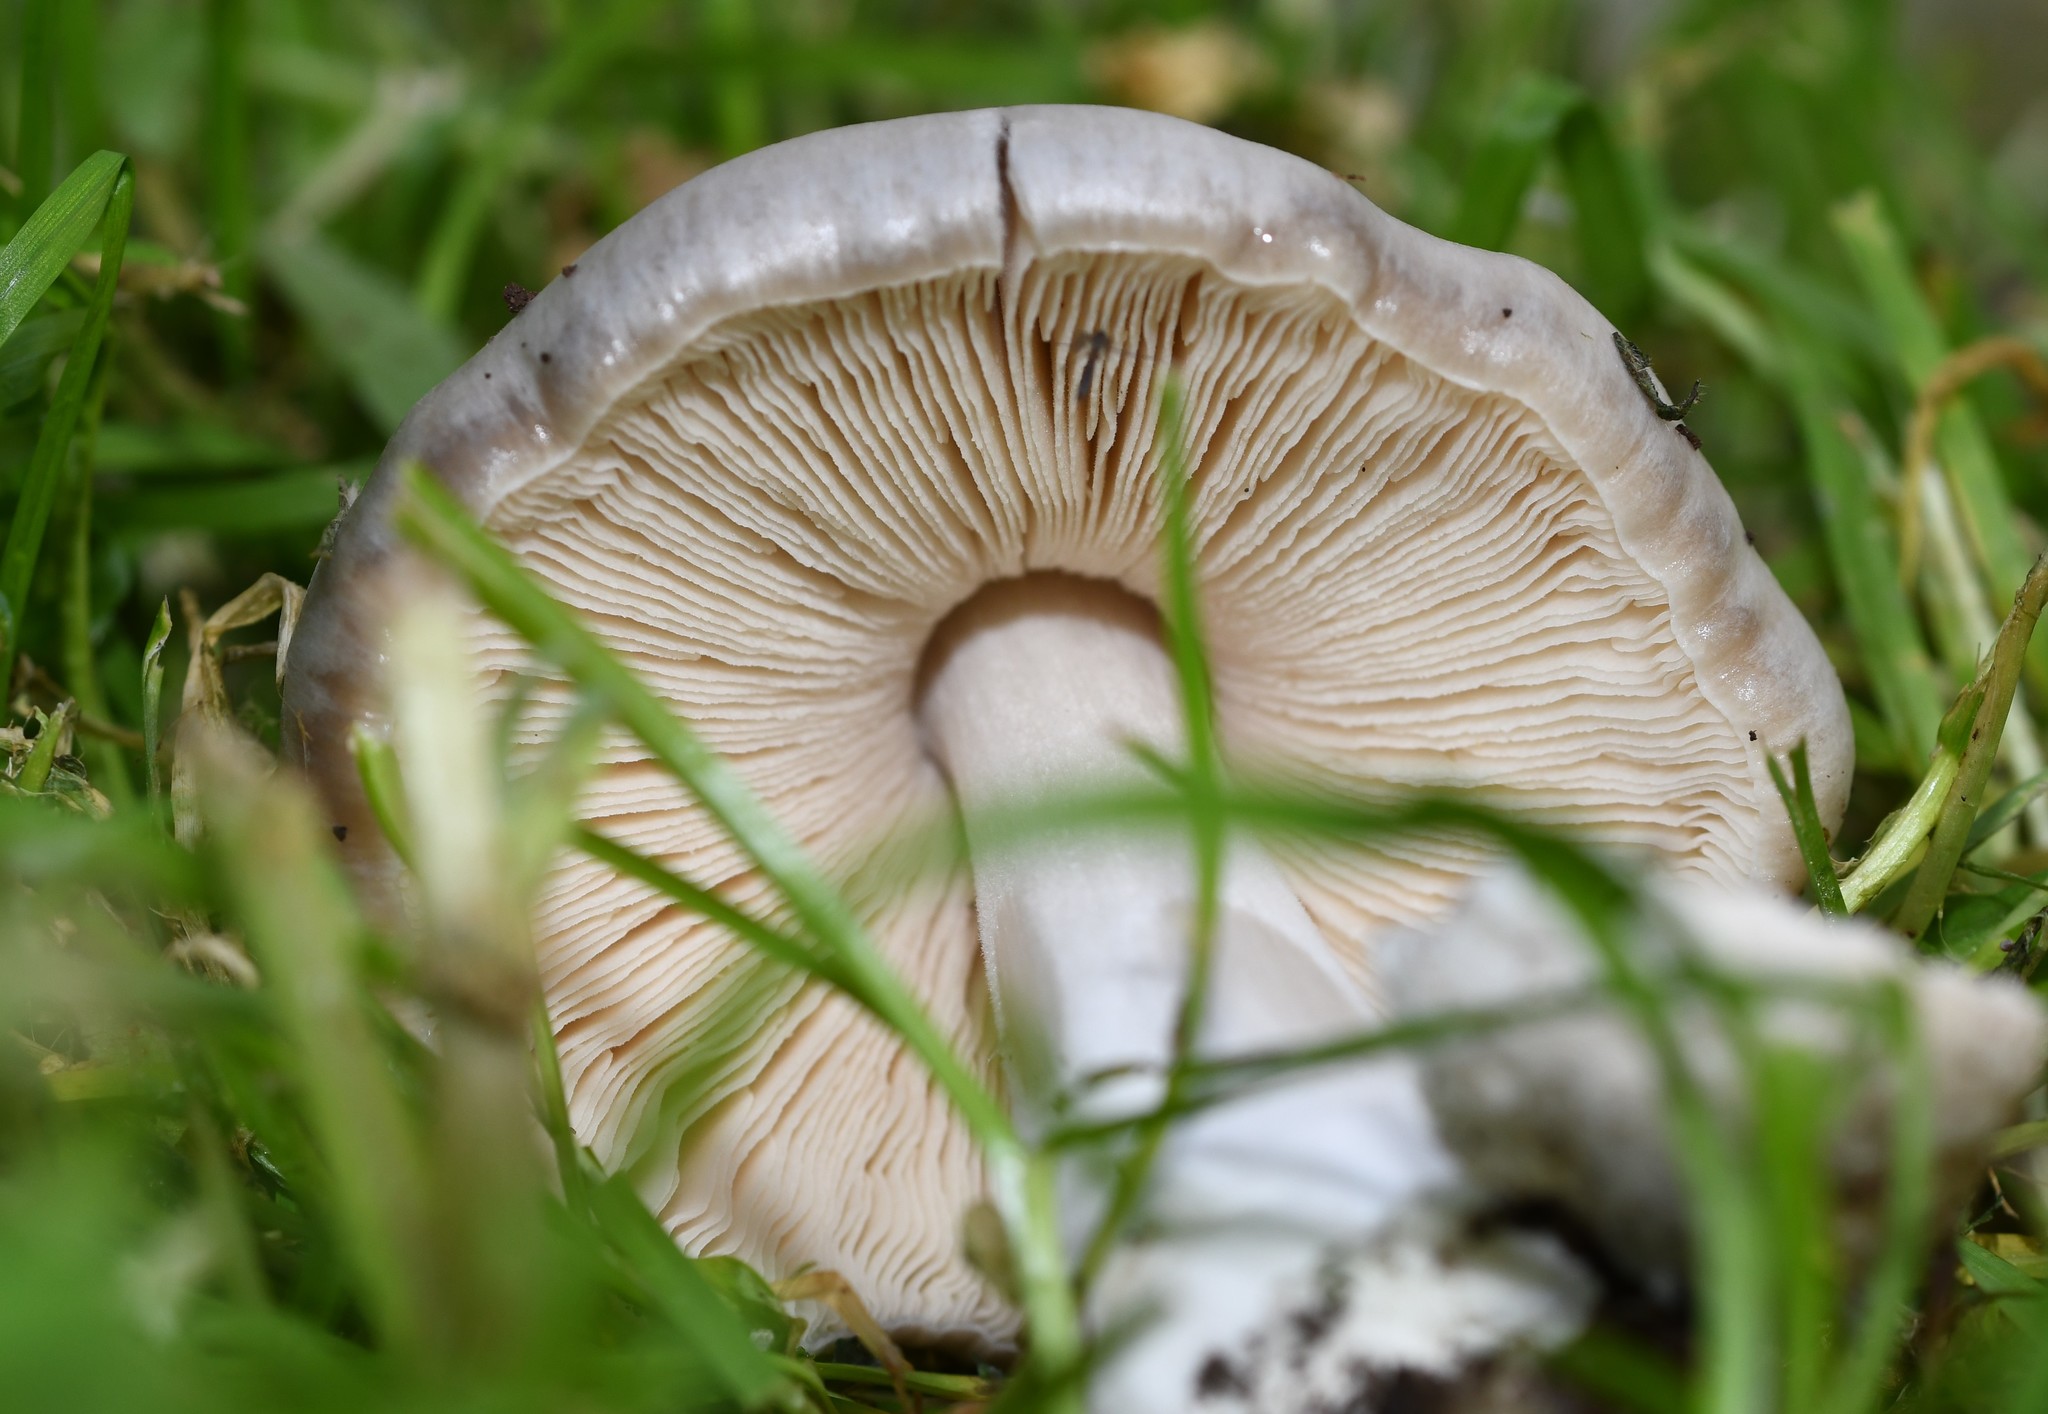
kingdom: Fungi
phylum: Basidiomycota
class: Agaricomycetes
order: Agaricales
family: Pluteaceae
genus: Volvopluteus
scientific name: Volvopluteus gloiocephalus
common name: Stubble rosegill
